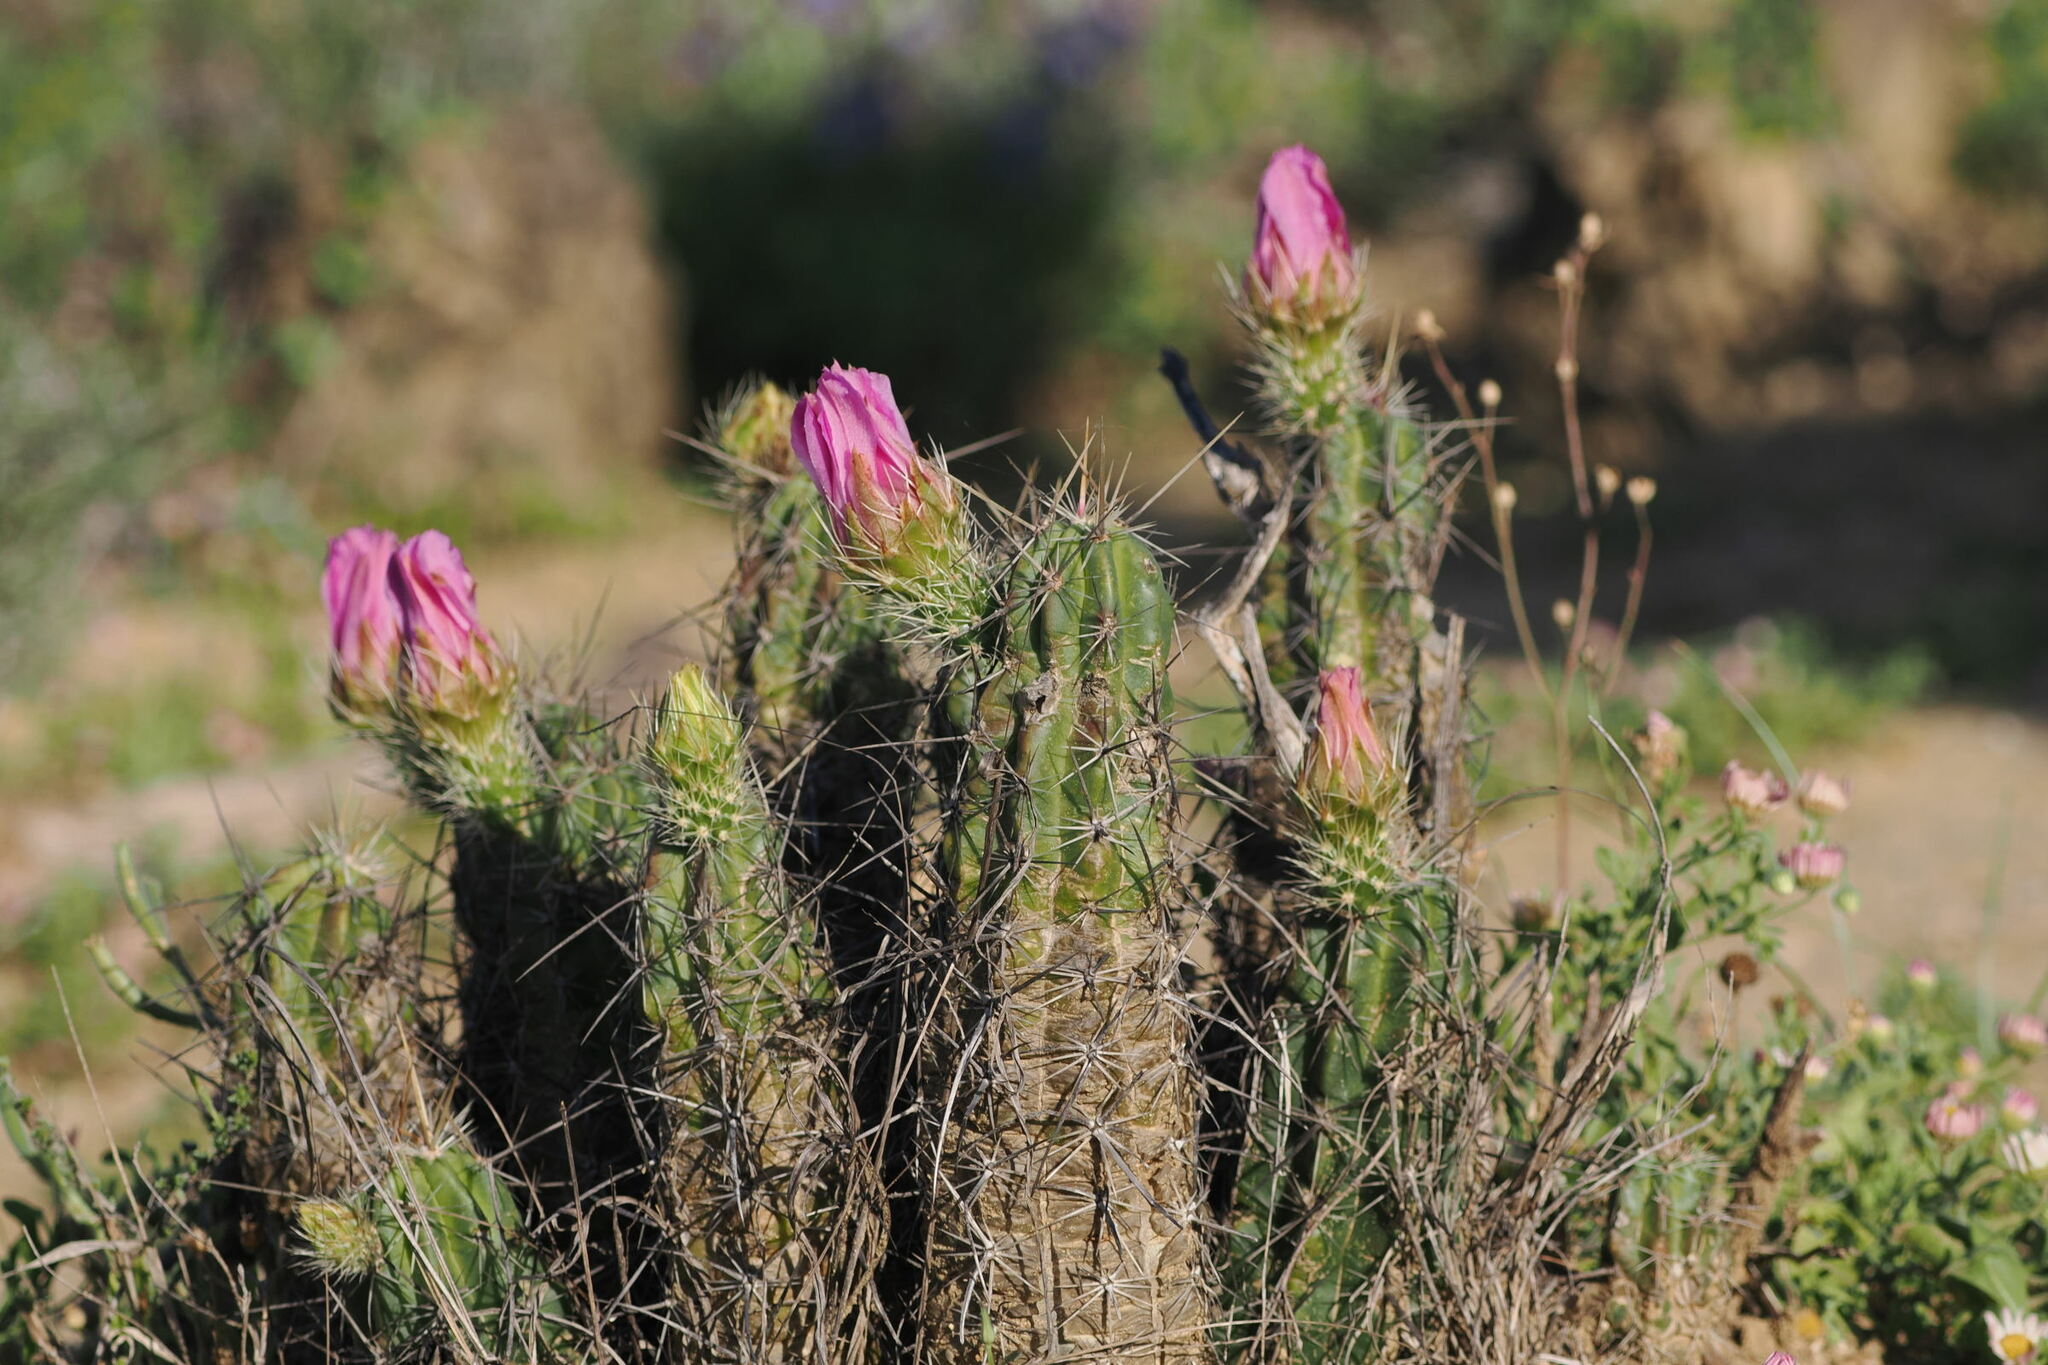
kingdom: Plantae
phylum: Tracheophyta
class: Magnoliopsida
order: Caryophyllales
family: Cactaceae
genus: Echinocereus
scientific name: Echinocereus enneacanthus
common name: Pitaya
